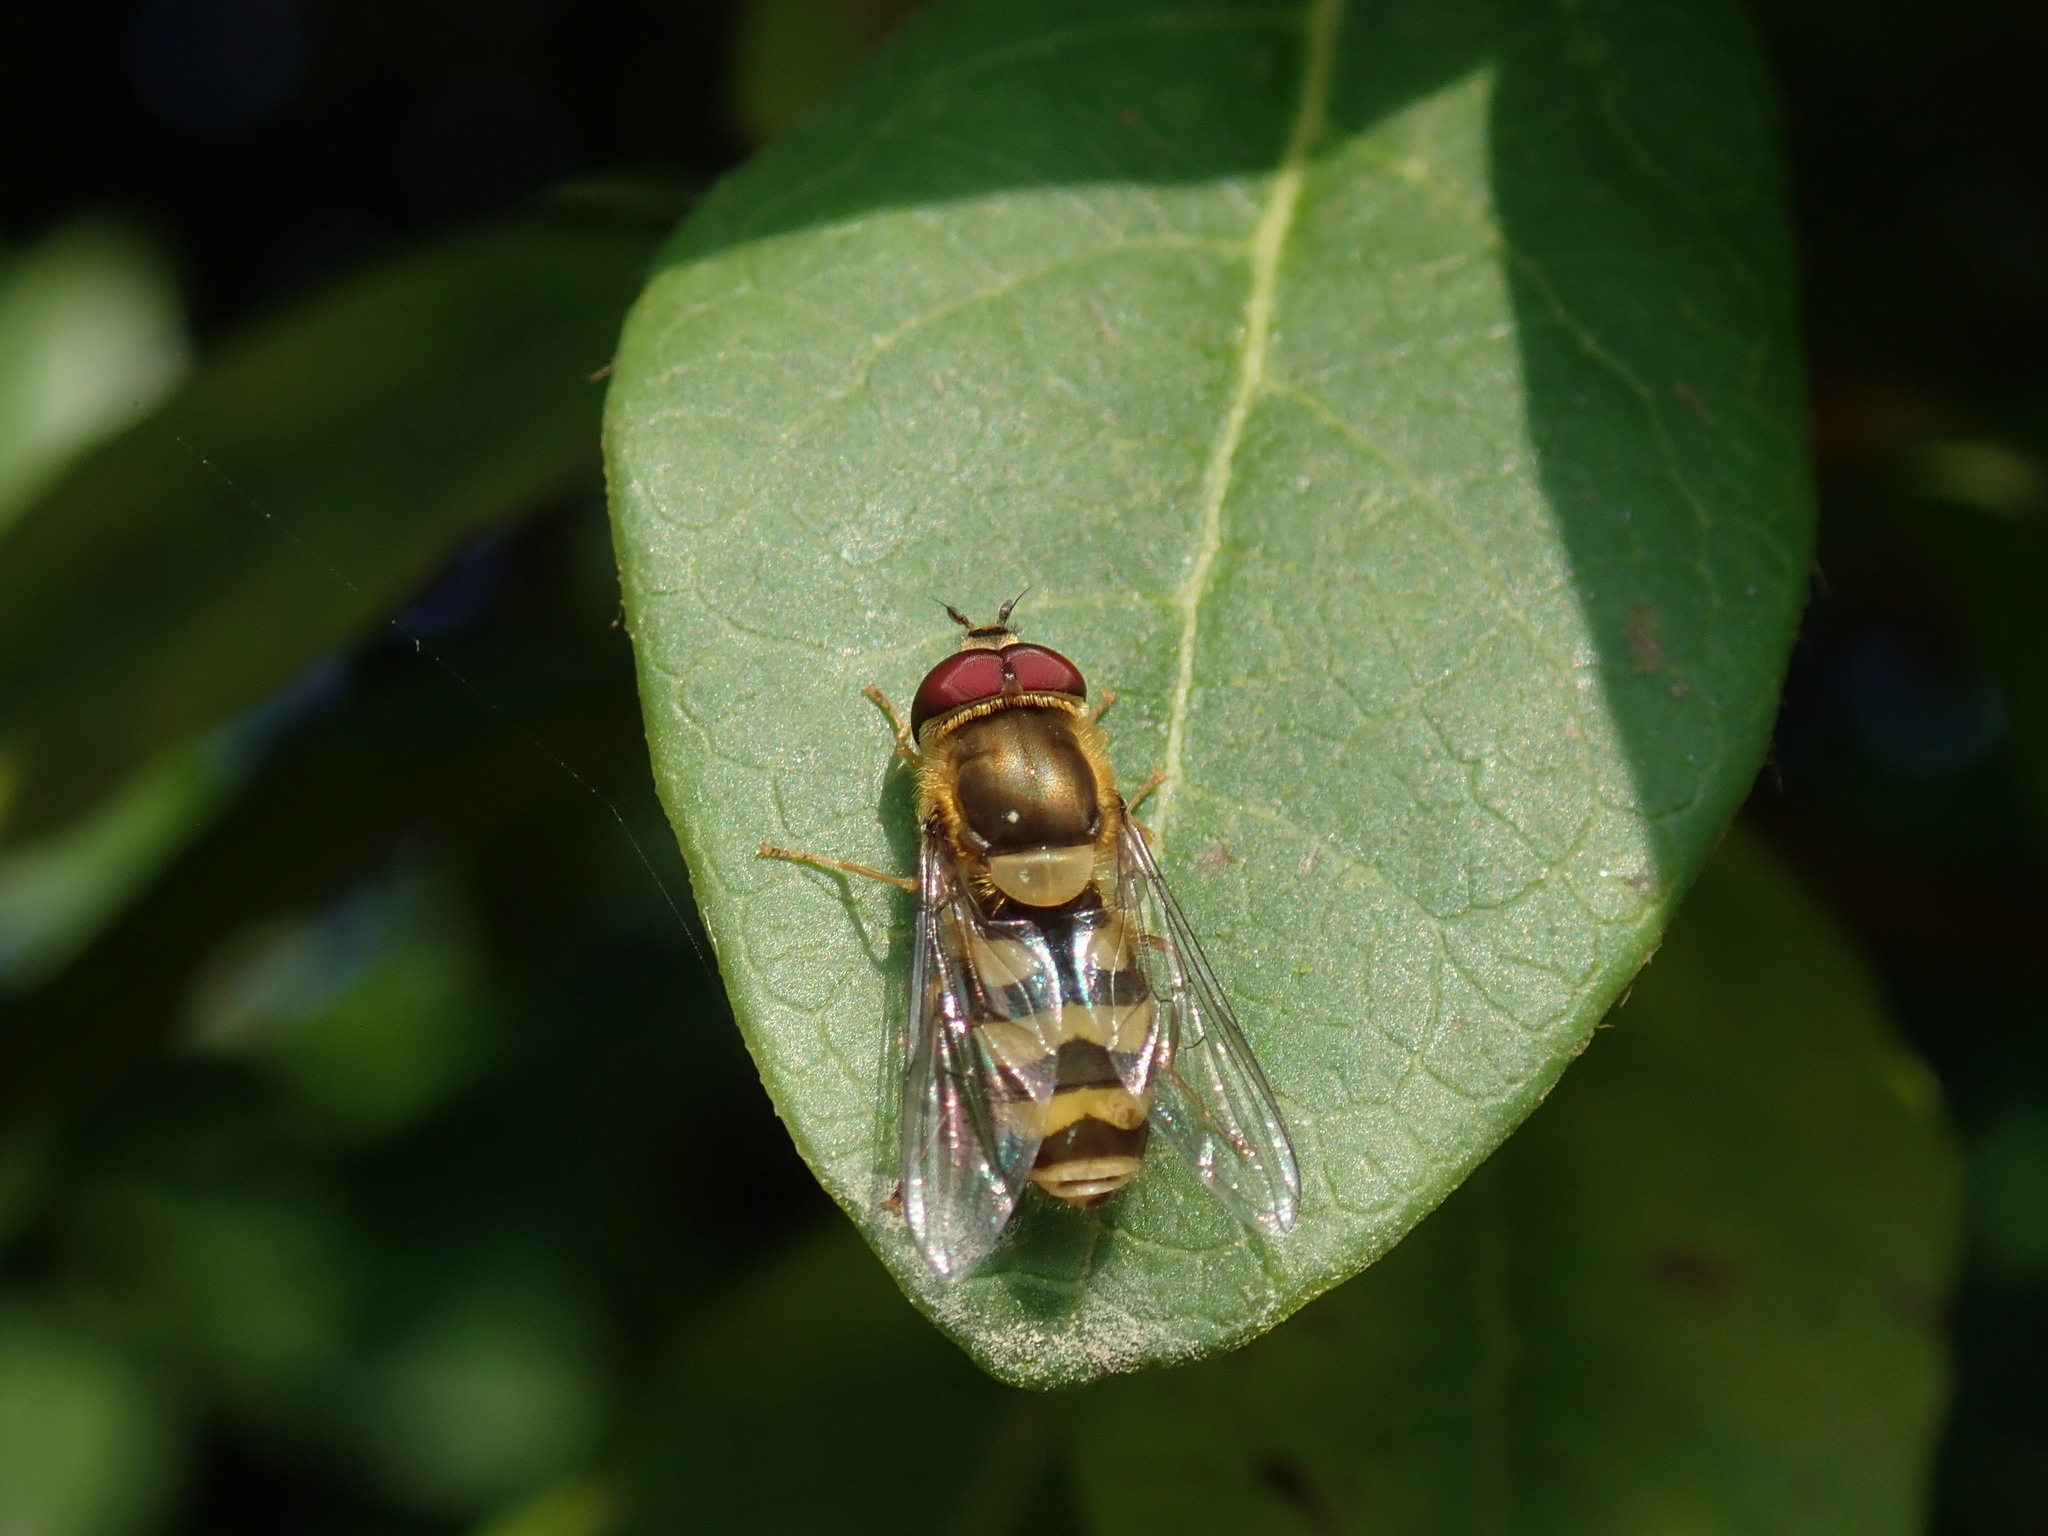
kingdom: Animalia
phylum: Arthropoda
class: Insecta
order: Diptera
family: Syrphidae
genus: Syrphus
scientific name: Syrphus
